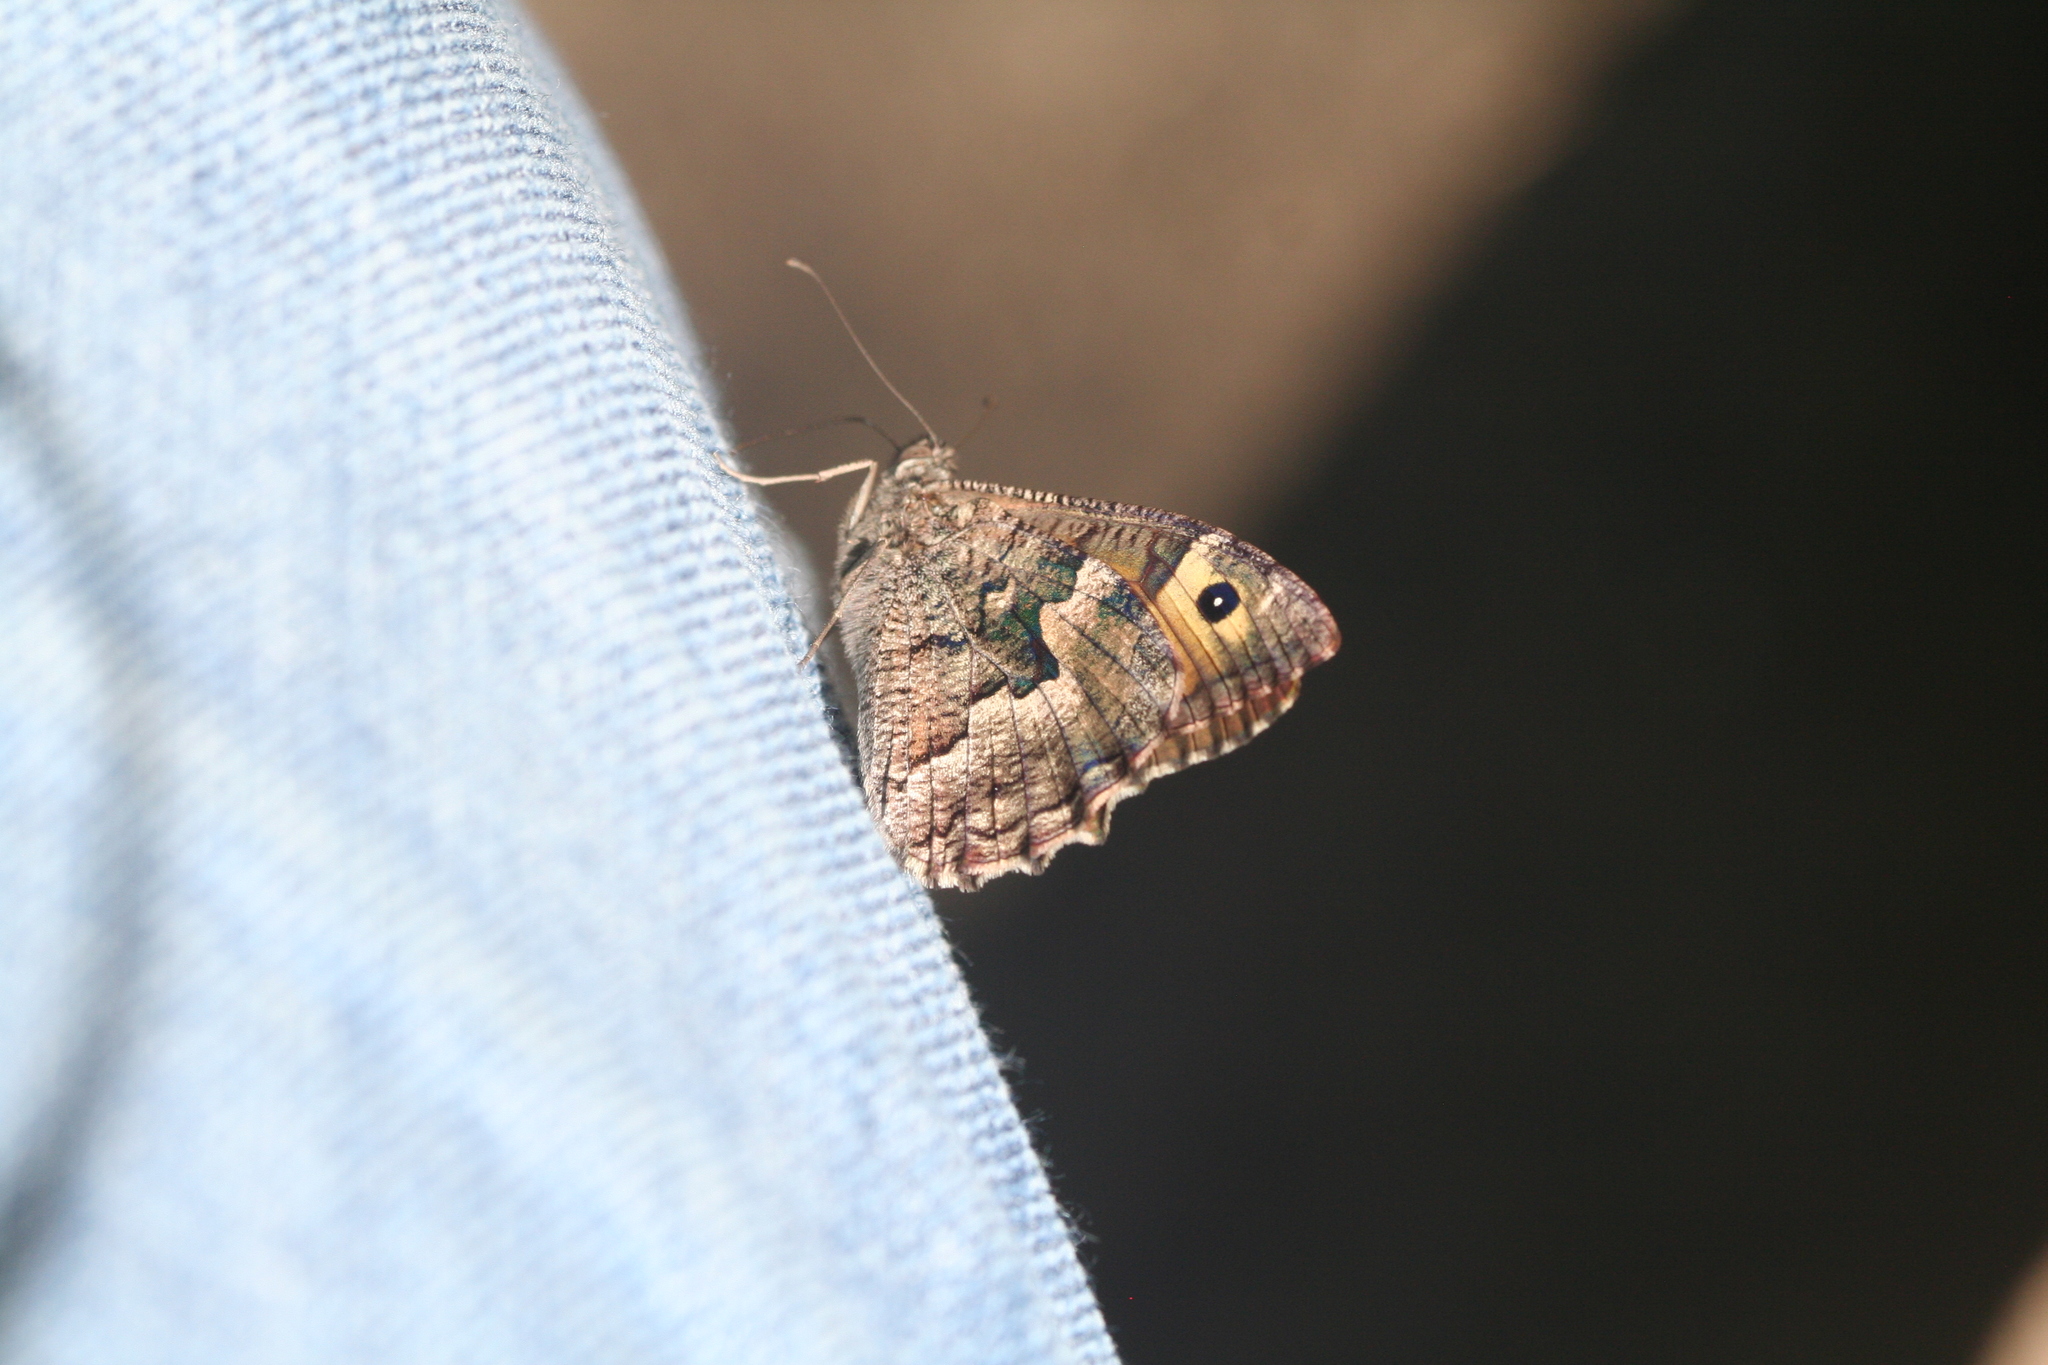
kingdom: Animalia
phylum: Arthropoda
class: Insecta
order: Lepidoptera
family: Nymphalidae
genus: Hipparchia
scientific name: Hipparchia algirica
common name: Mountain grayling
